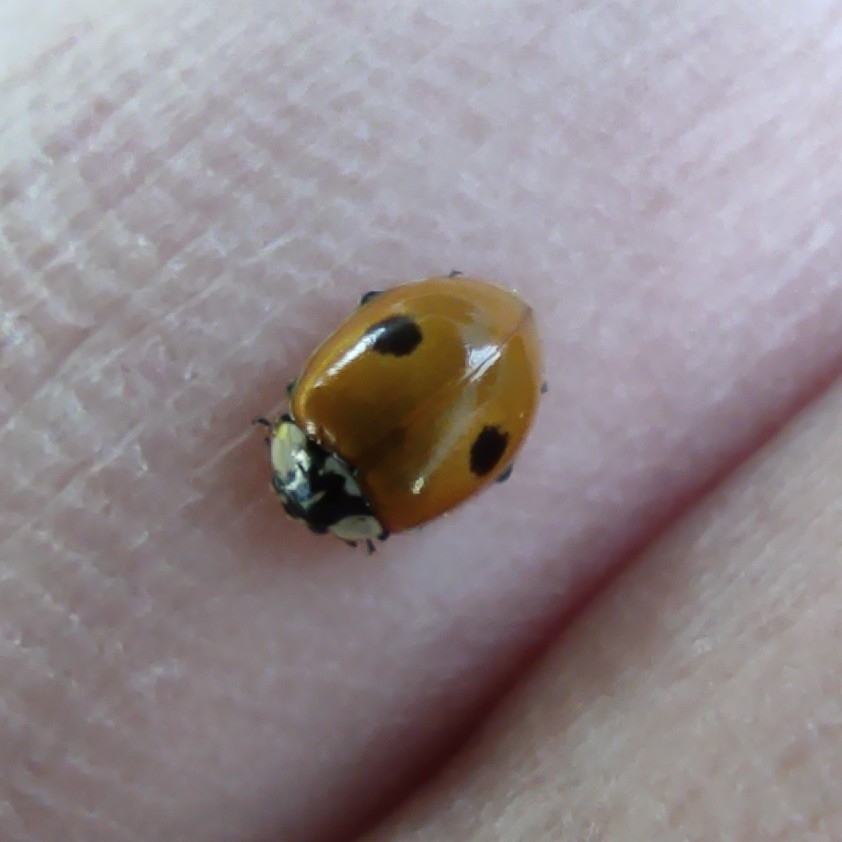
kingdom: Animalia
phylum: Arthropoda
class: Insecta
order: Coleoptera
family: Coccinellidae
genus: Adalia
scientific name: Adalia bipunctata
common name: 2-spot ladybird
